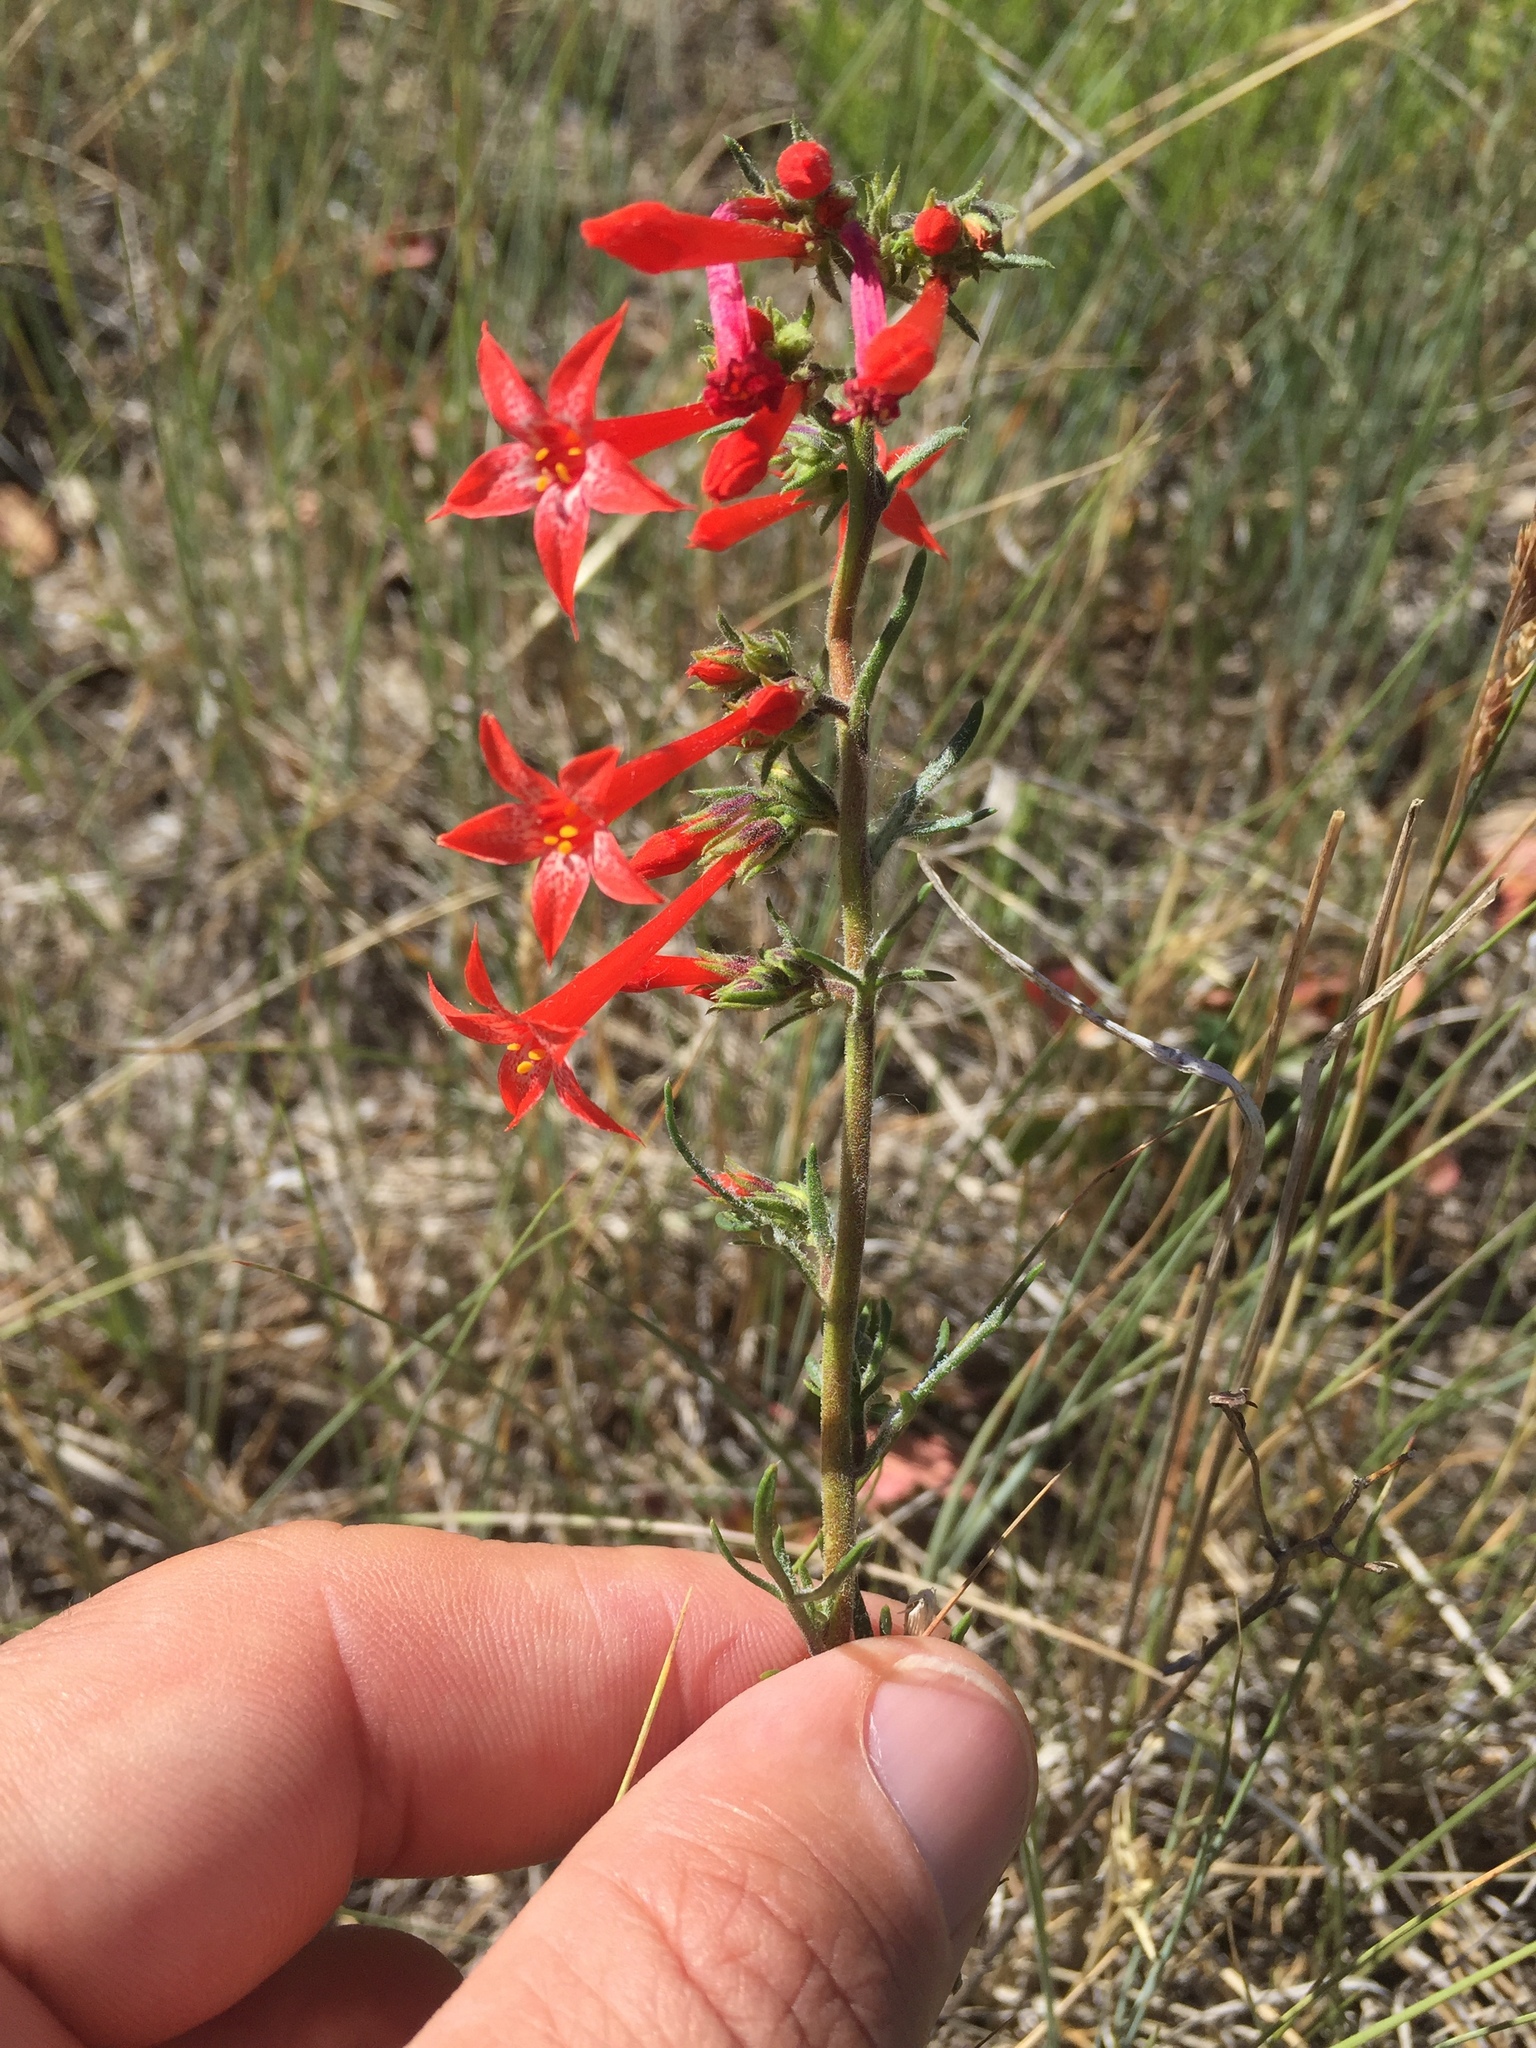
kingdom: Plantae
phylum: Tracheophyta
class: Magnoliopsida
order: Ericales
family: Polemoniaceae
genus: Ipomopsis
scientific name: Ipomopsis aggregata
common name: Scarlet gilia
